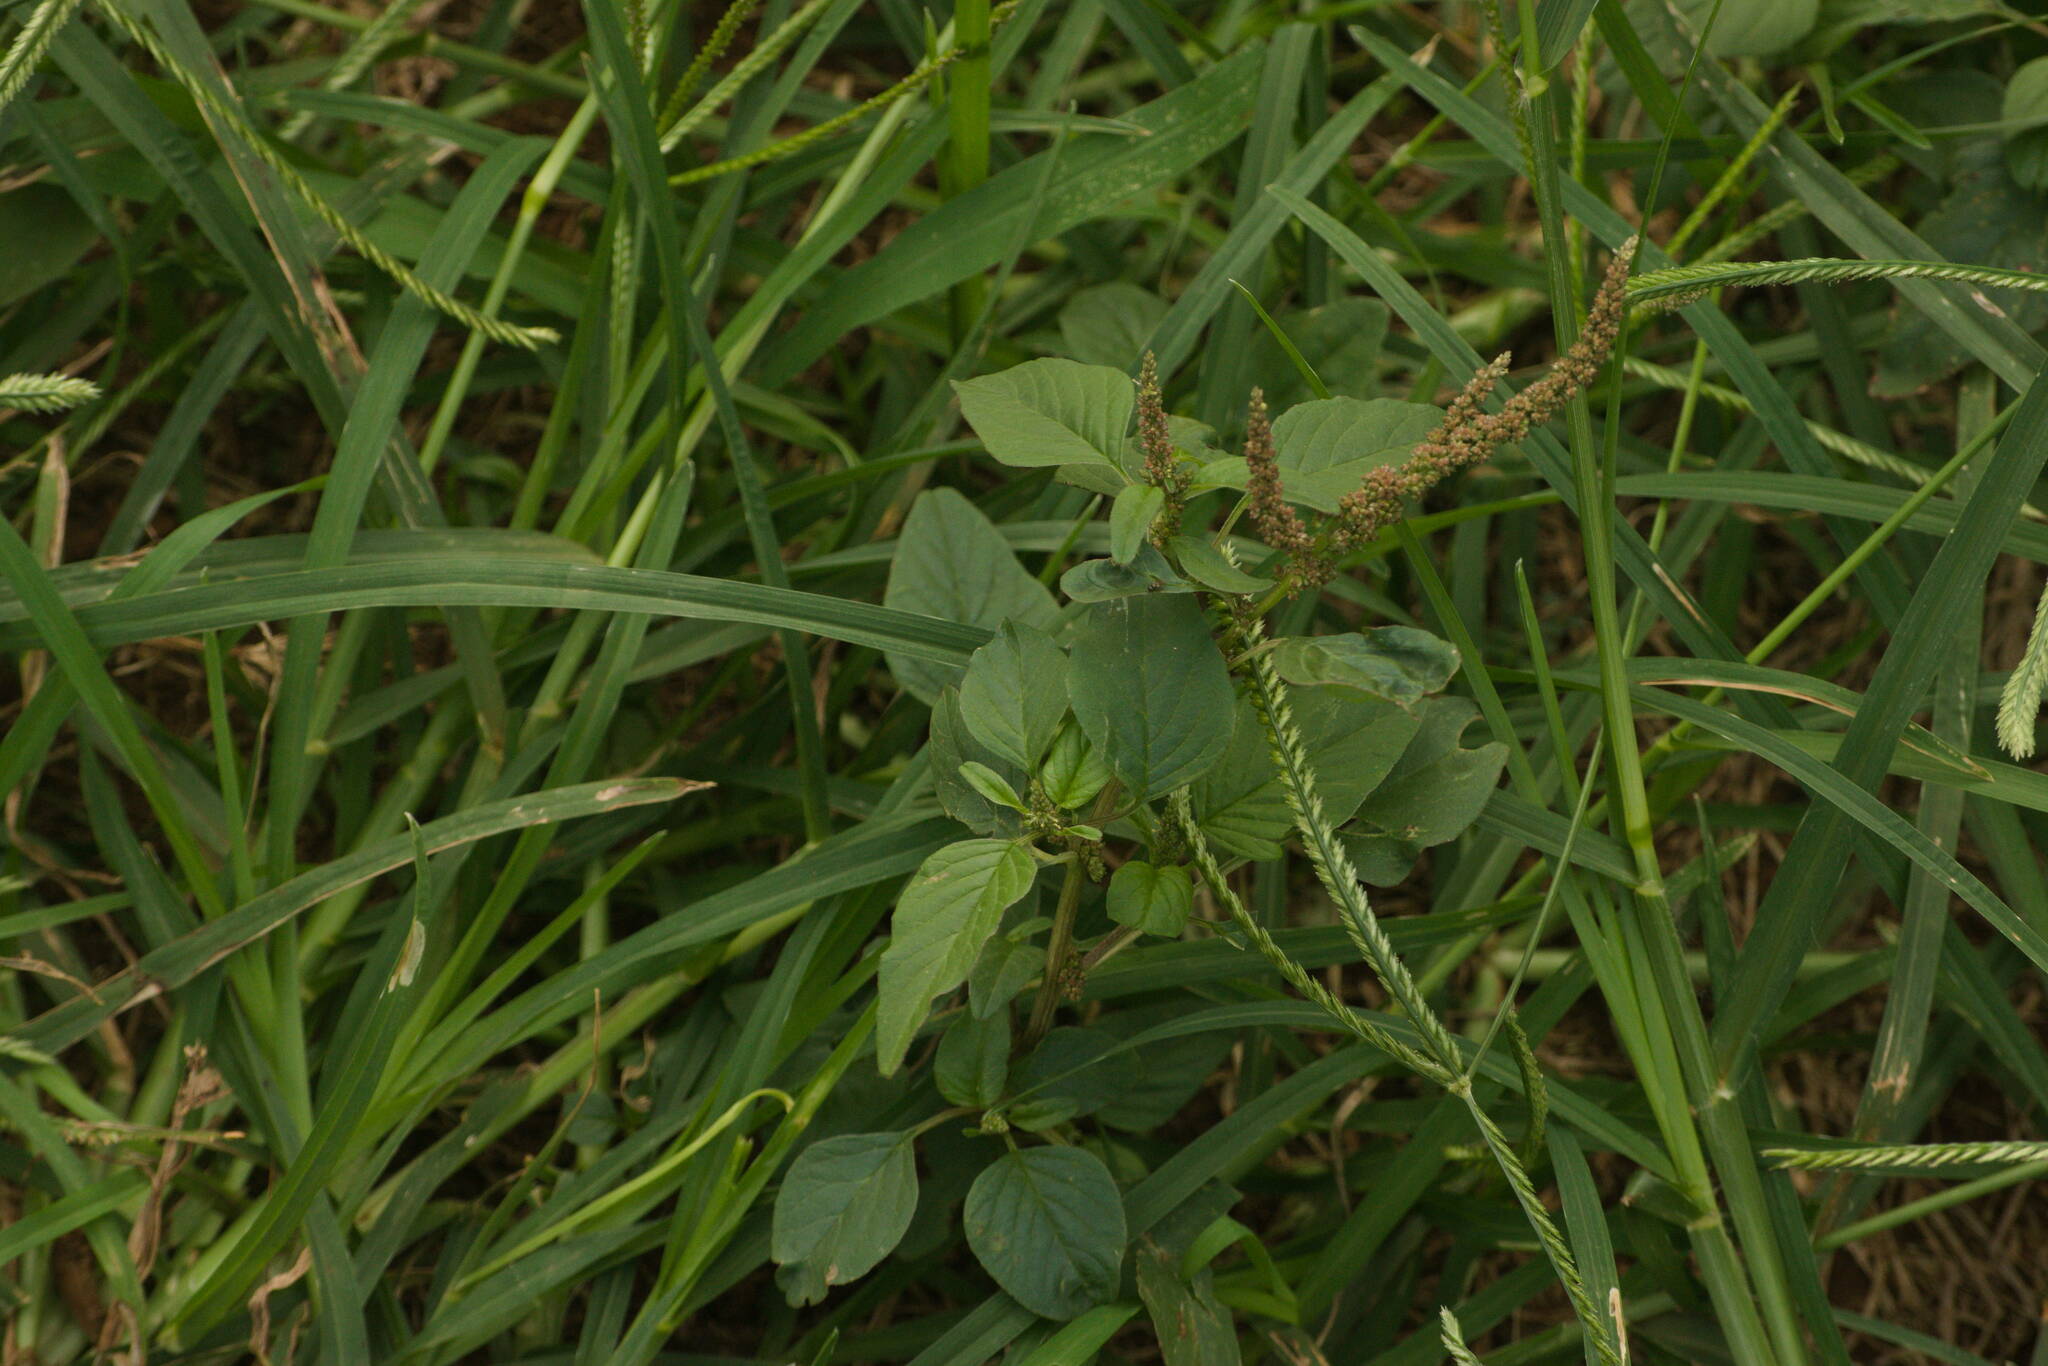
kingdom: Plantae
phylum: Tracheophyta
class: Magnoliopsida
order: Caryophyllales
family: Amaranthaceae
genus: Amaranthus
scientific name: Amaranthus viridis
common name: Slender amaranth
